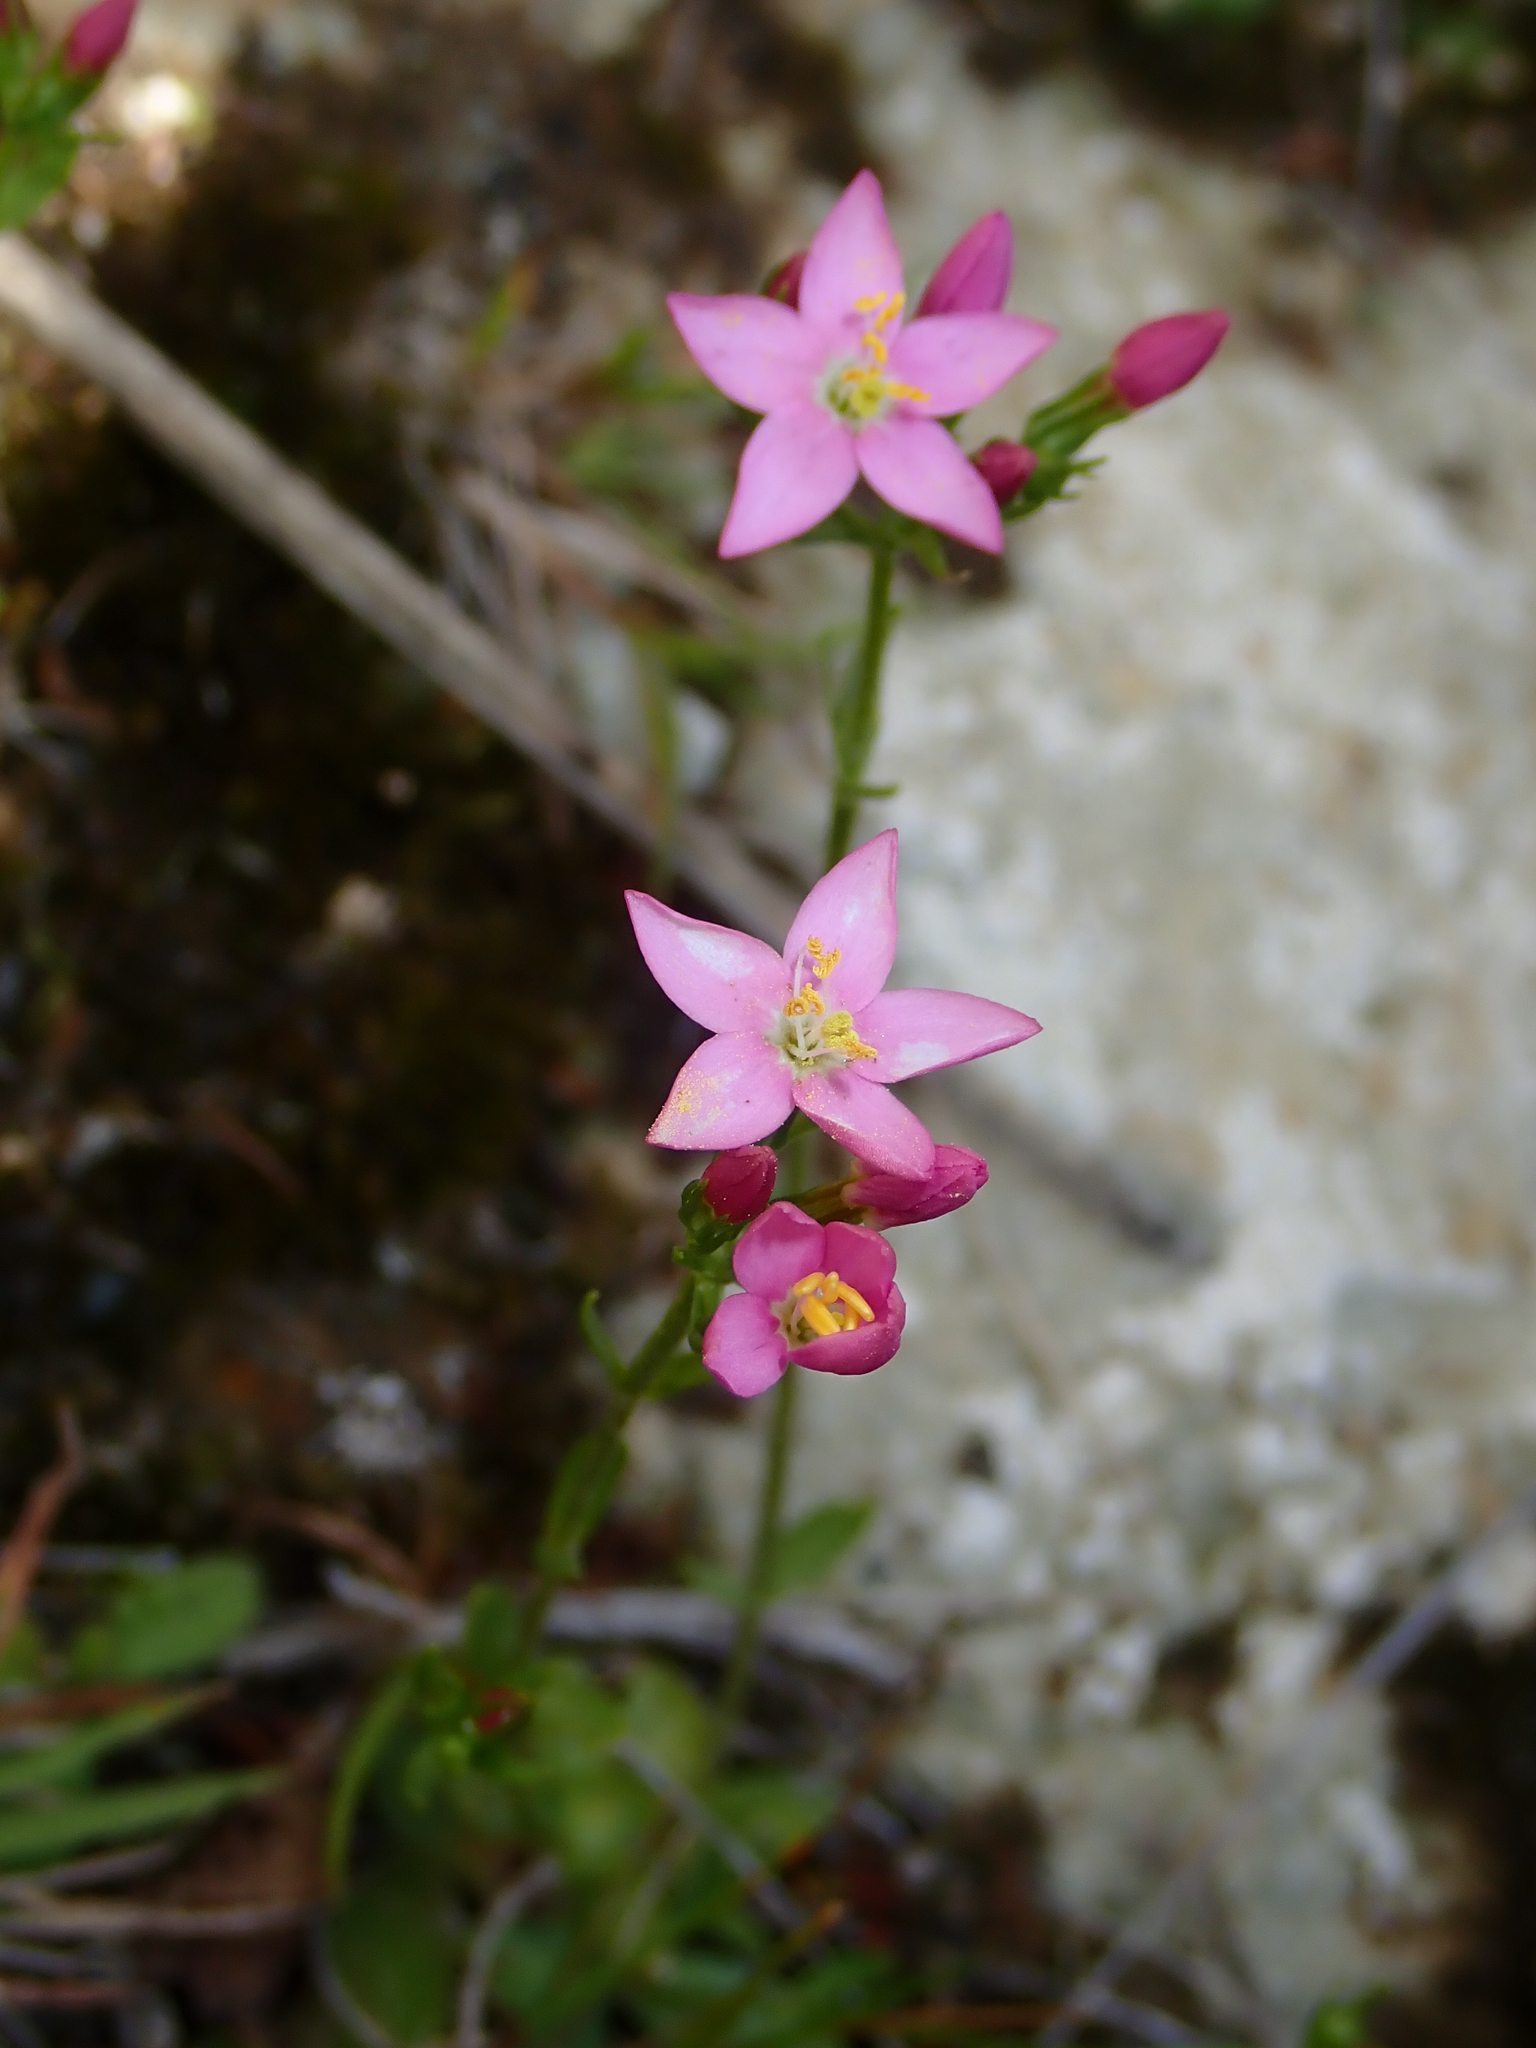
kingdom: Plantae
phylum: Tracheophyta
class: Magnoliopsida
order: Gentianales
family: Gentianaceae
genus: Centaurium
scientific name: Centaurium erythraea
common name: Common centaury
